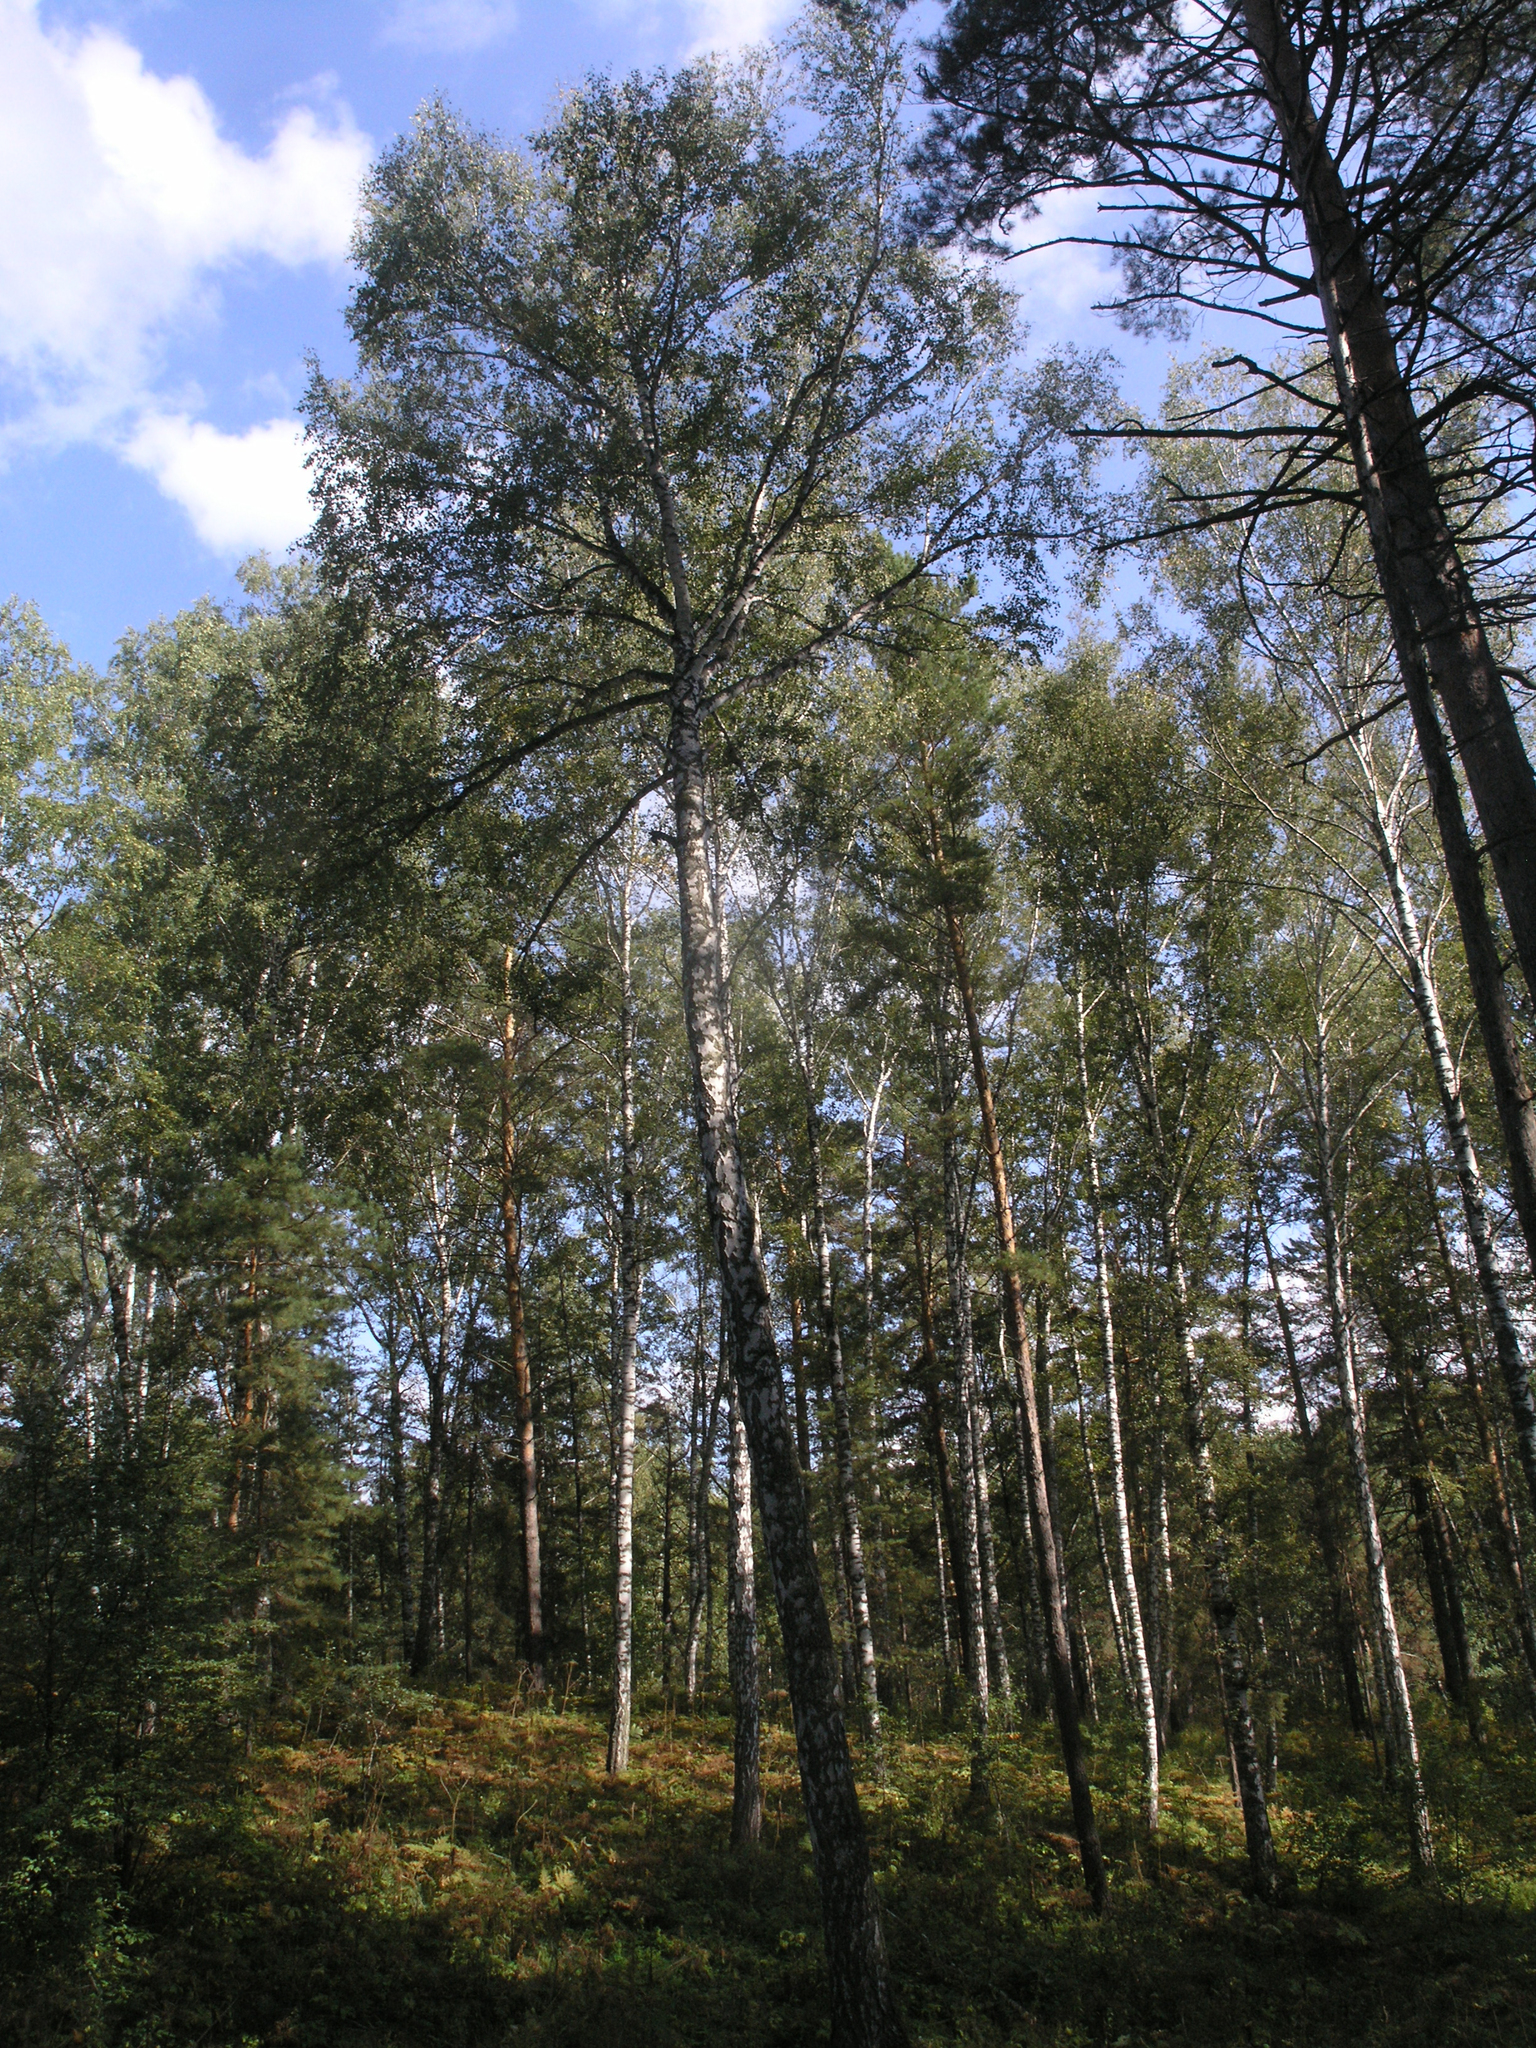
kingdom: Plantae
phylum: Tracheophyta
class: Magnoliopsida
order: Fagales
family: Betulaceae
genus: Betula
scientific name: Betula pendula
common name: Silver birch
